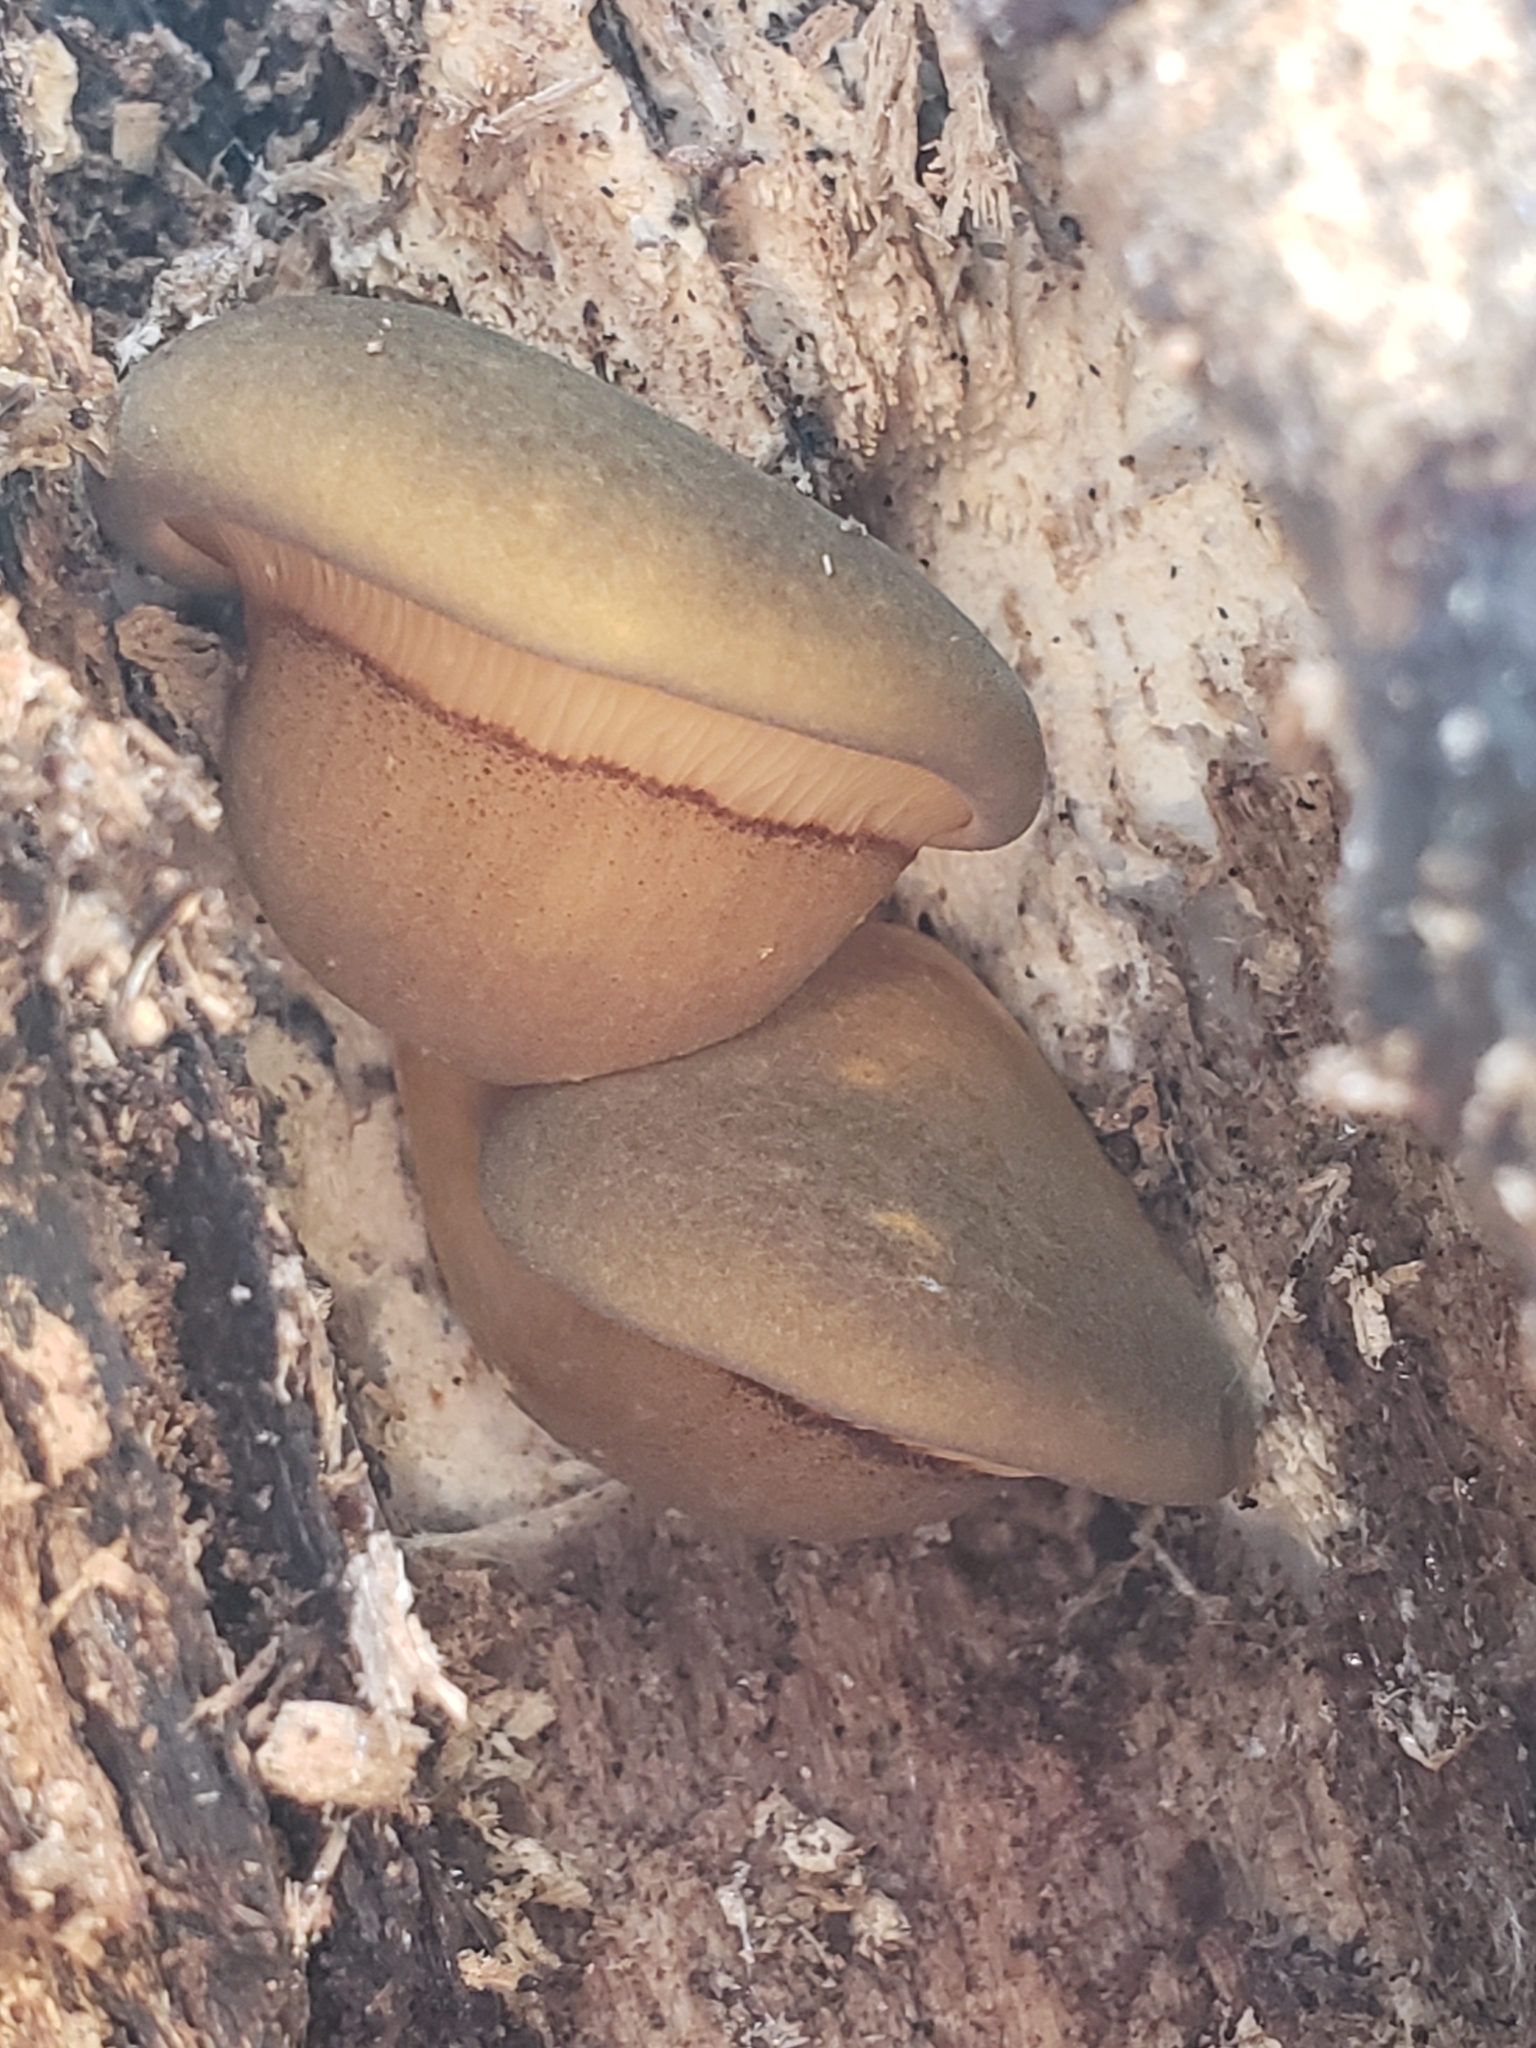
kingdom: Fungi
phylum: Basidiomycota
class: Agaricomycetes
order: Agaricales
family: Sarcomyxaceae
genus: Sarcomyxa
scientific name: Sarcomyxa serotina
